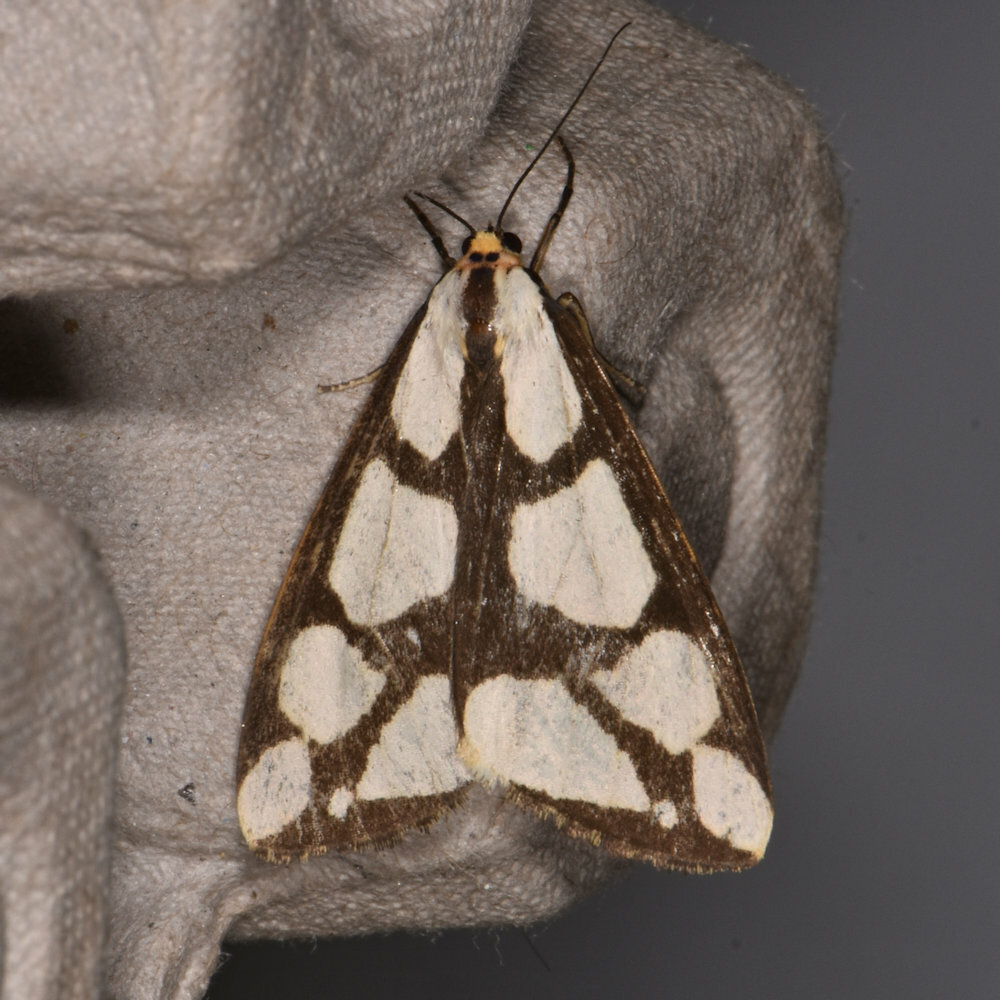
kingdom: Animalia
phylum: Arthropoda
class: Insecta
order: Lepidoptera
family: Erebidae
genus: Haploa
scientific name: Haploa lecontei
